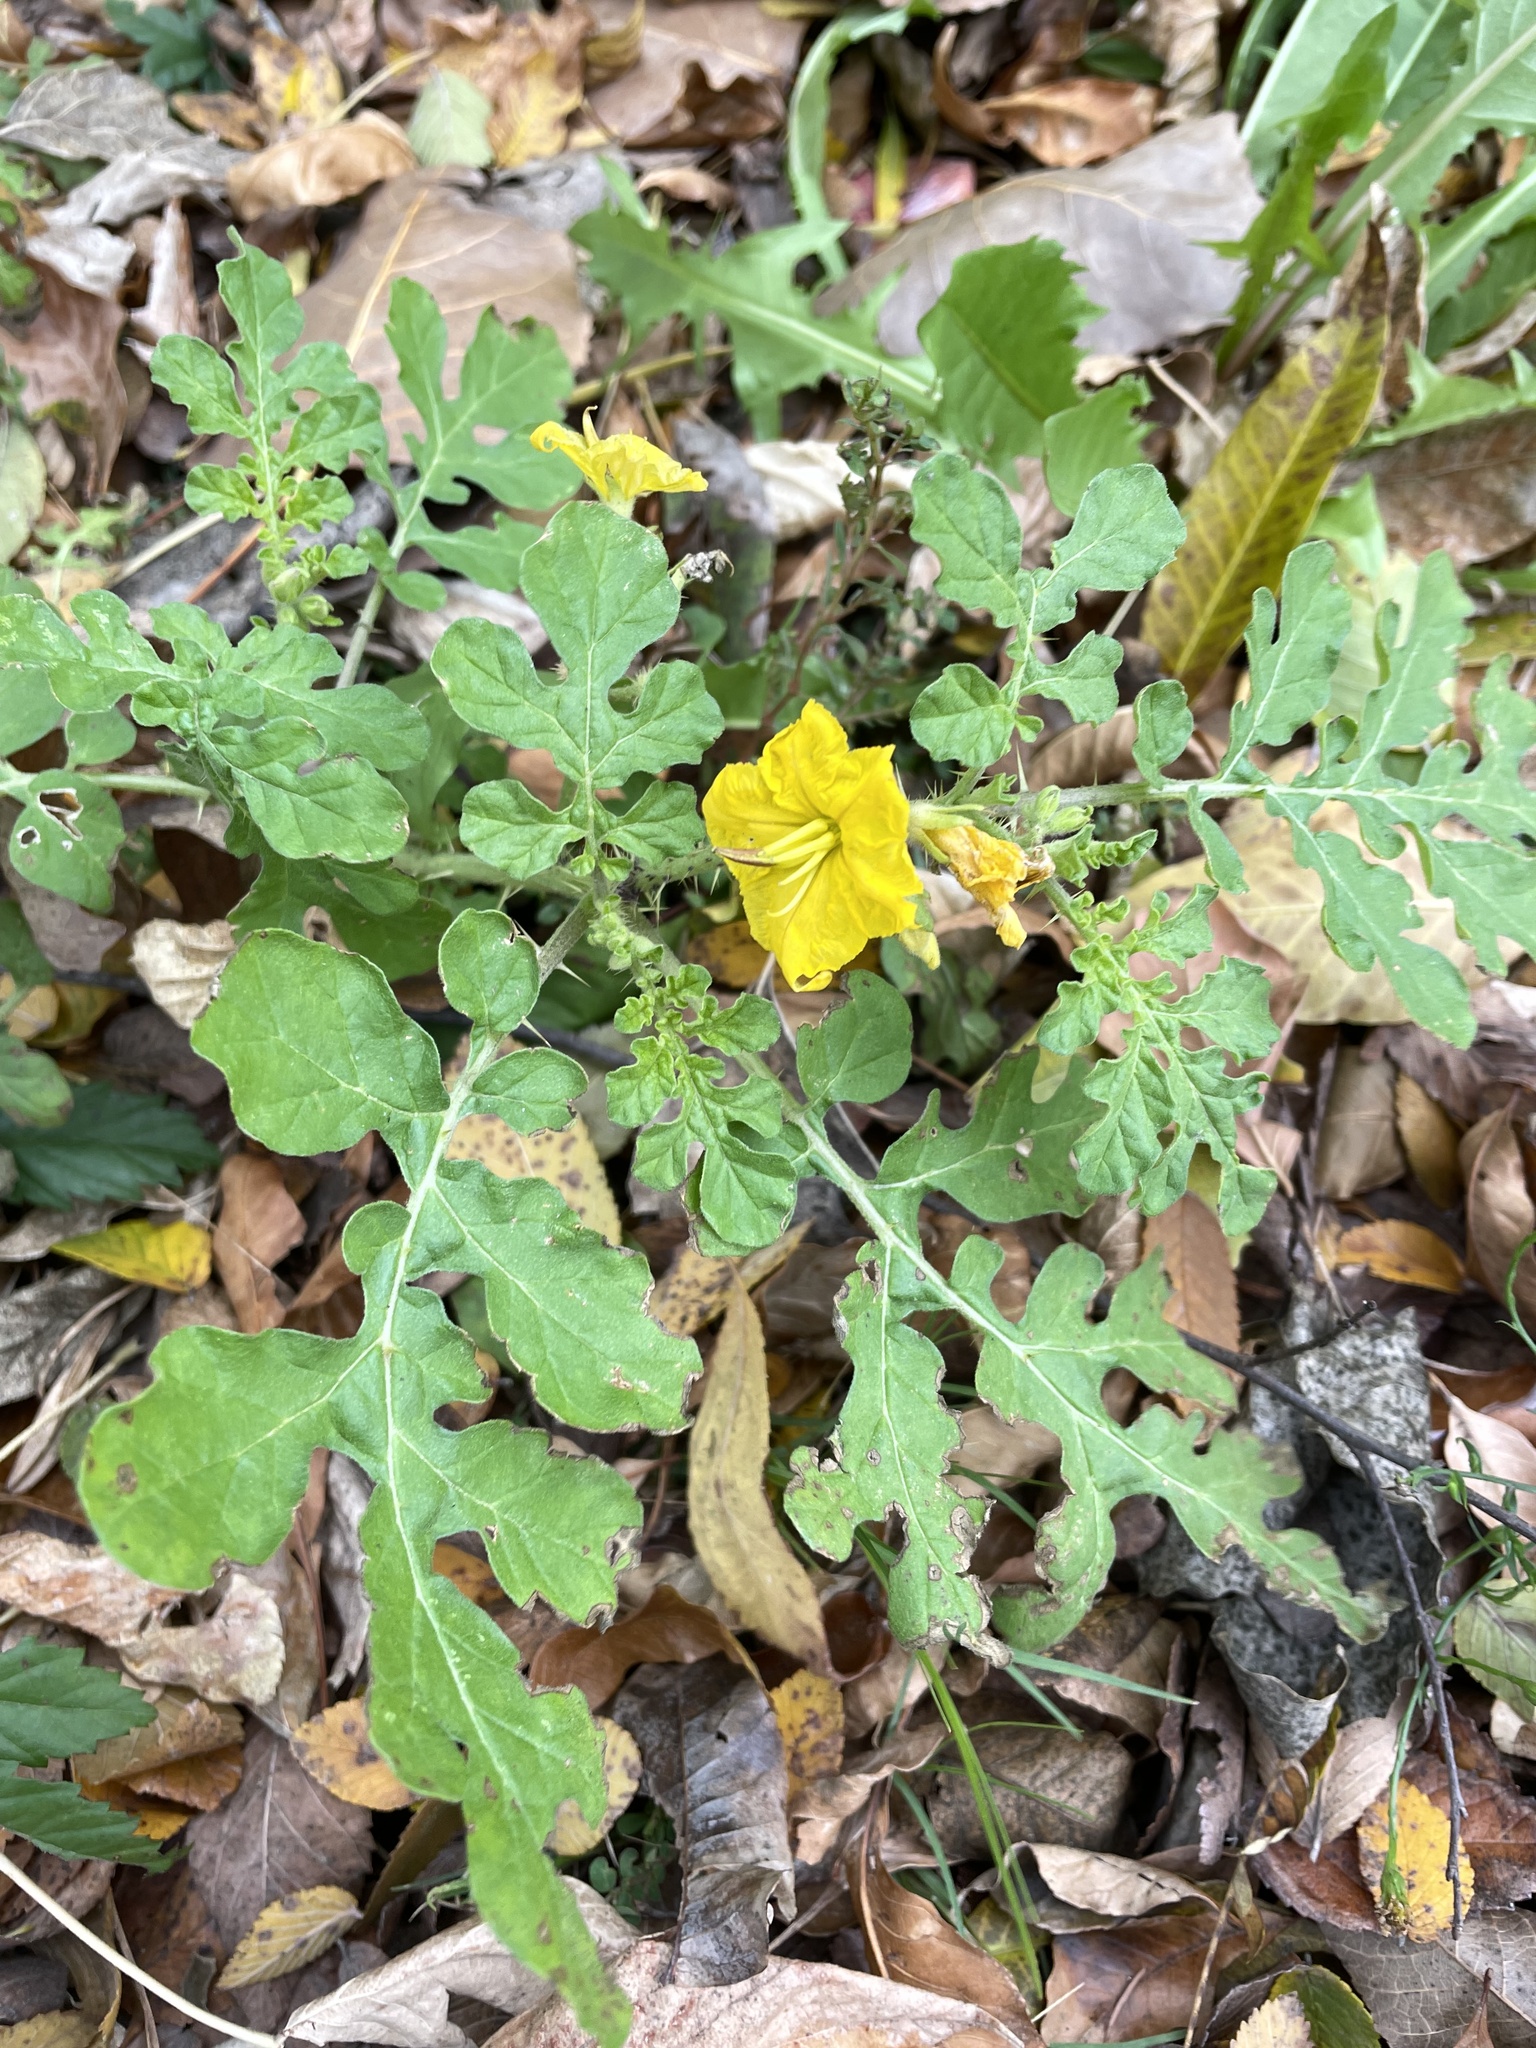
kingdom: Plantae
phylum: Tracheophyta
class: Magnoliopsida
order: Solanales
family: Solanaceae
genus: Solanum
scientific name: Solanum angustifolium
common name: Buffalobur nightshade
